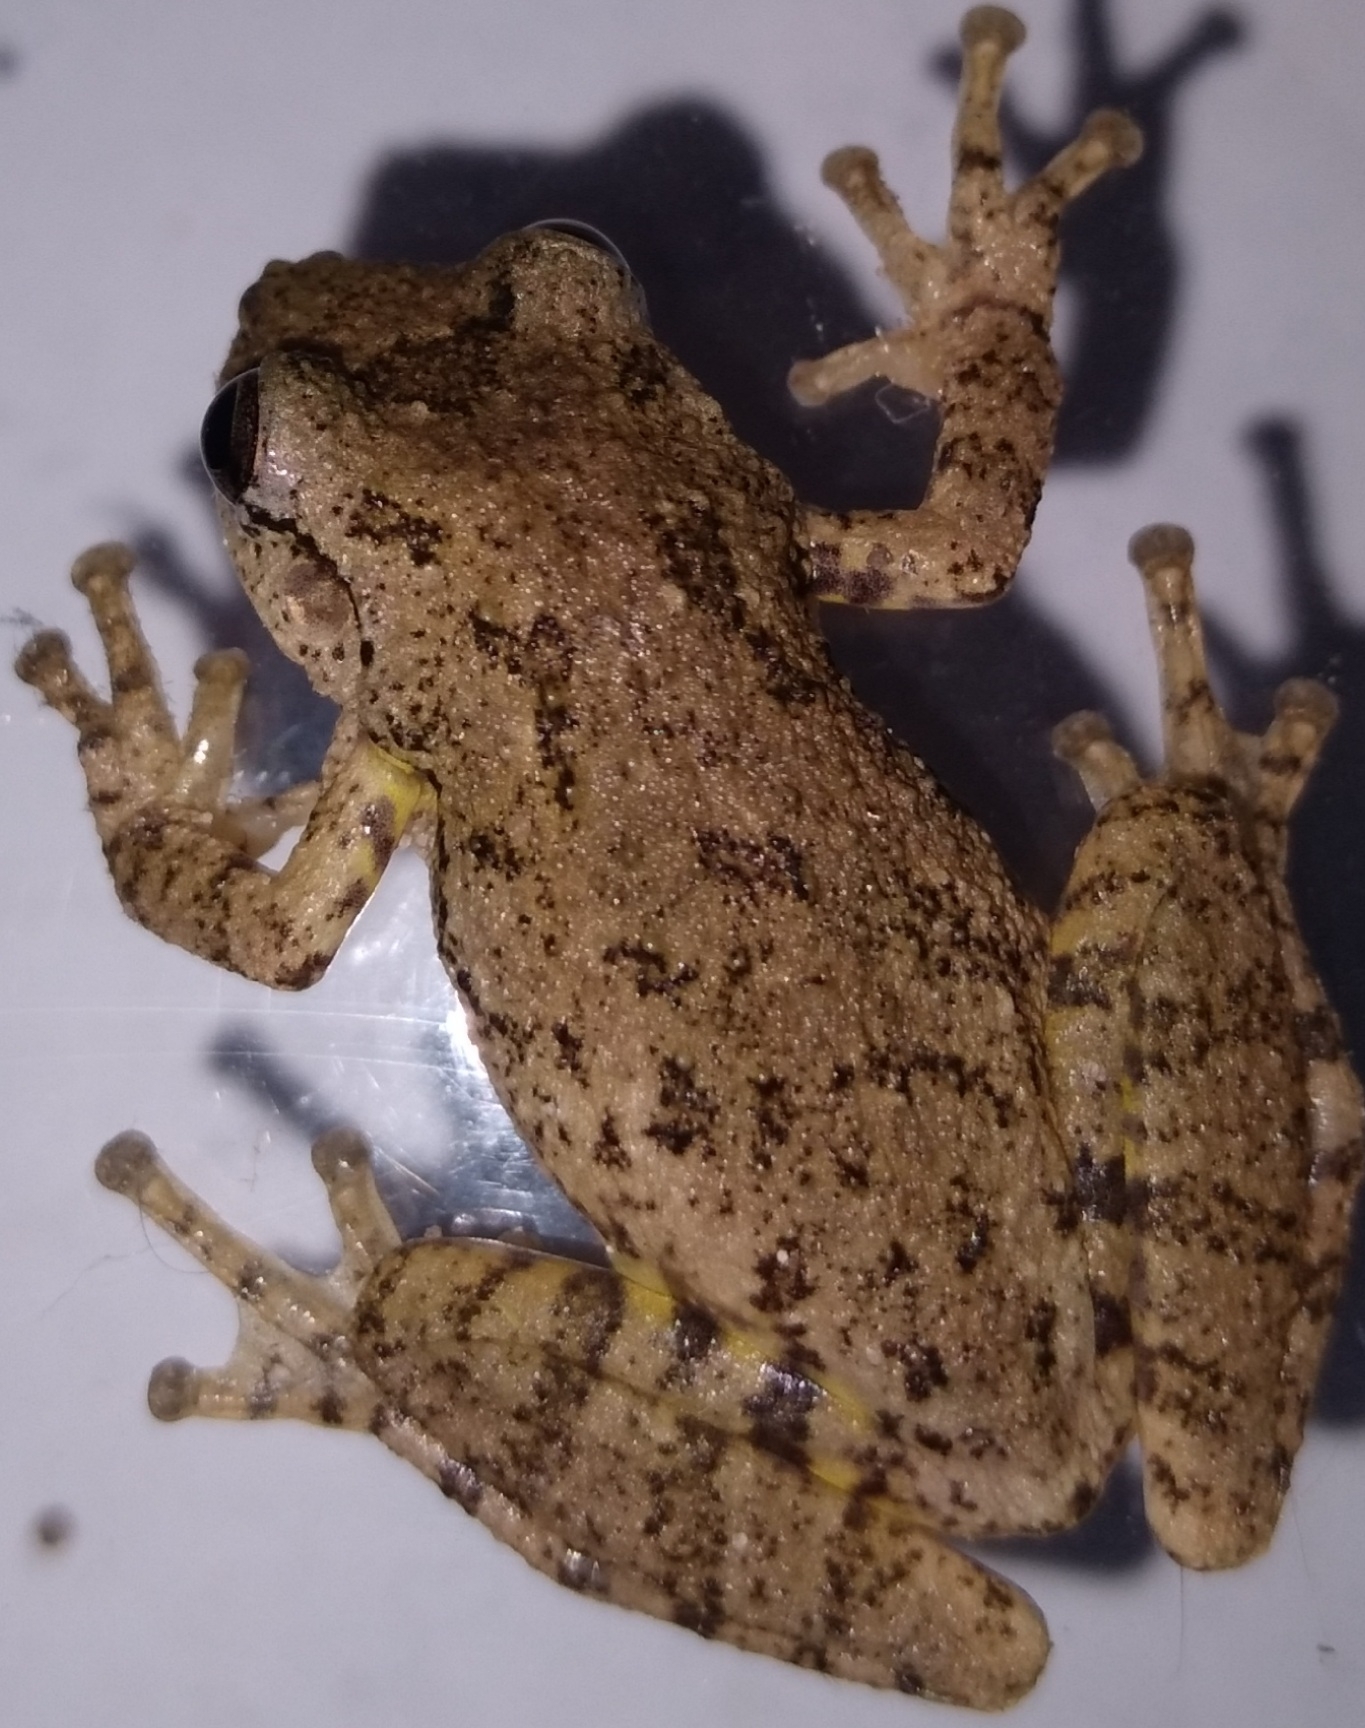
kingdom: Animalia
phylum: Chordata
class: Amphibia
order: Anura
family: Hylidae
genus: Scinax
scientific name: Scinax granulatus
